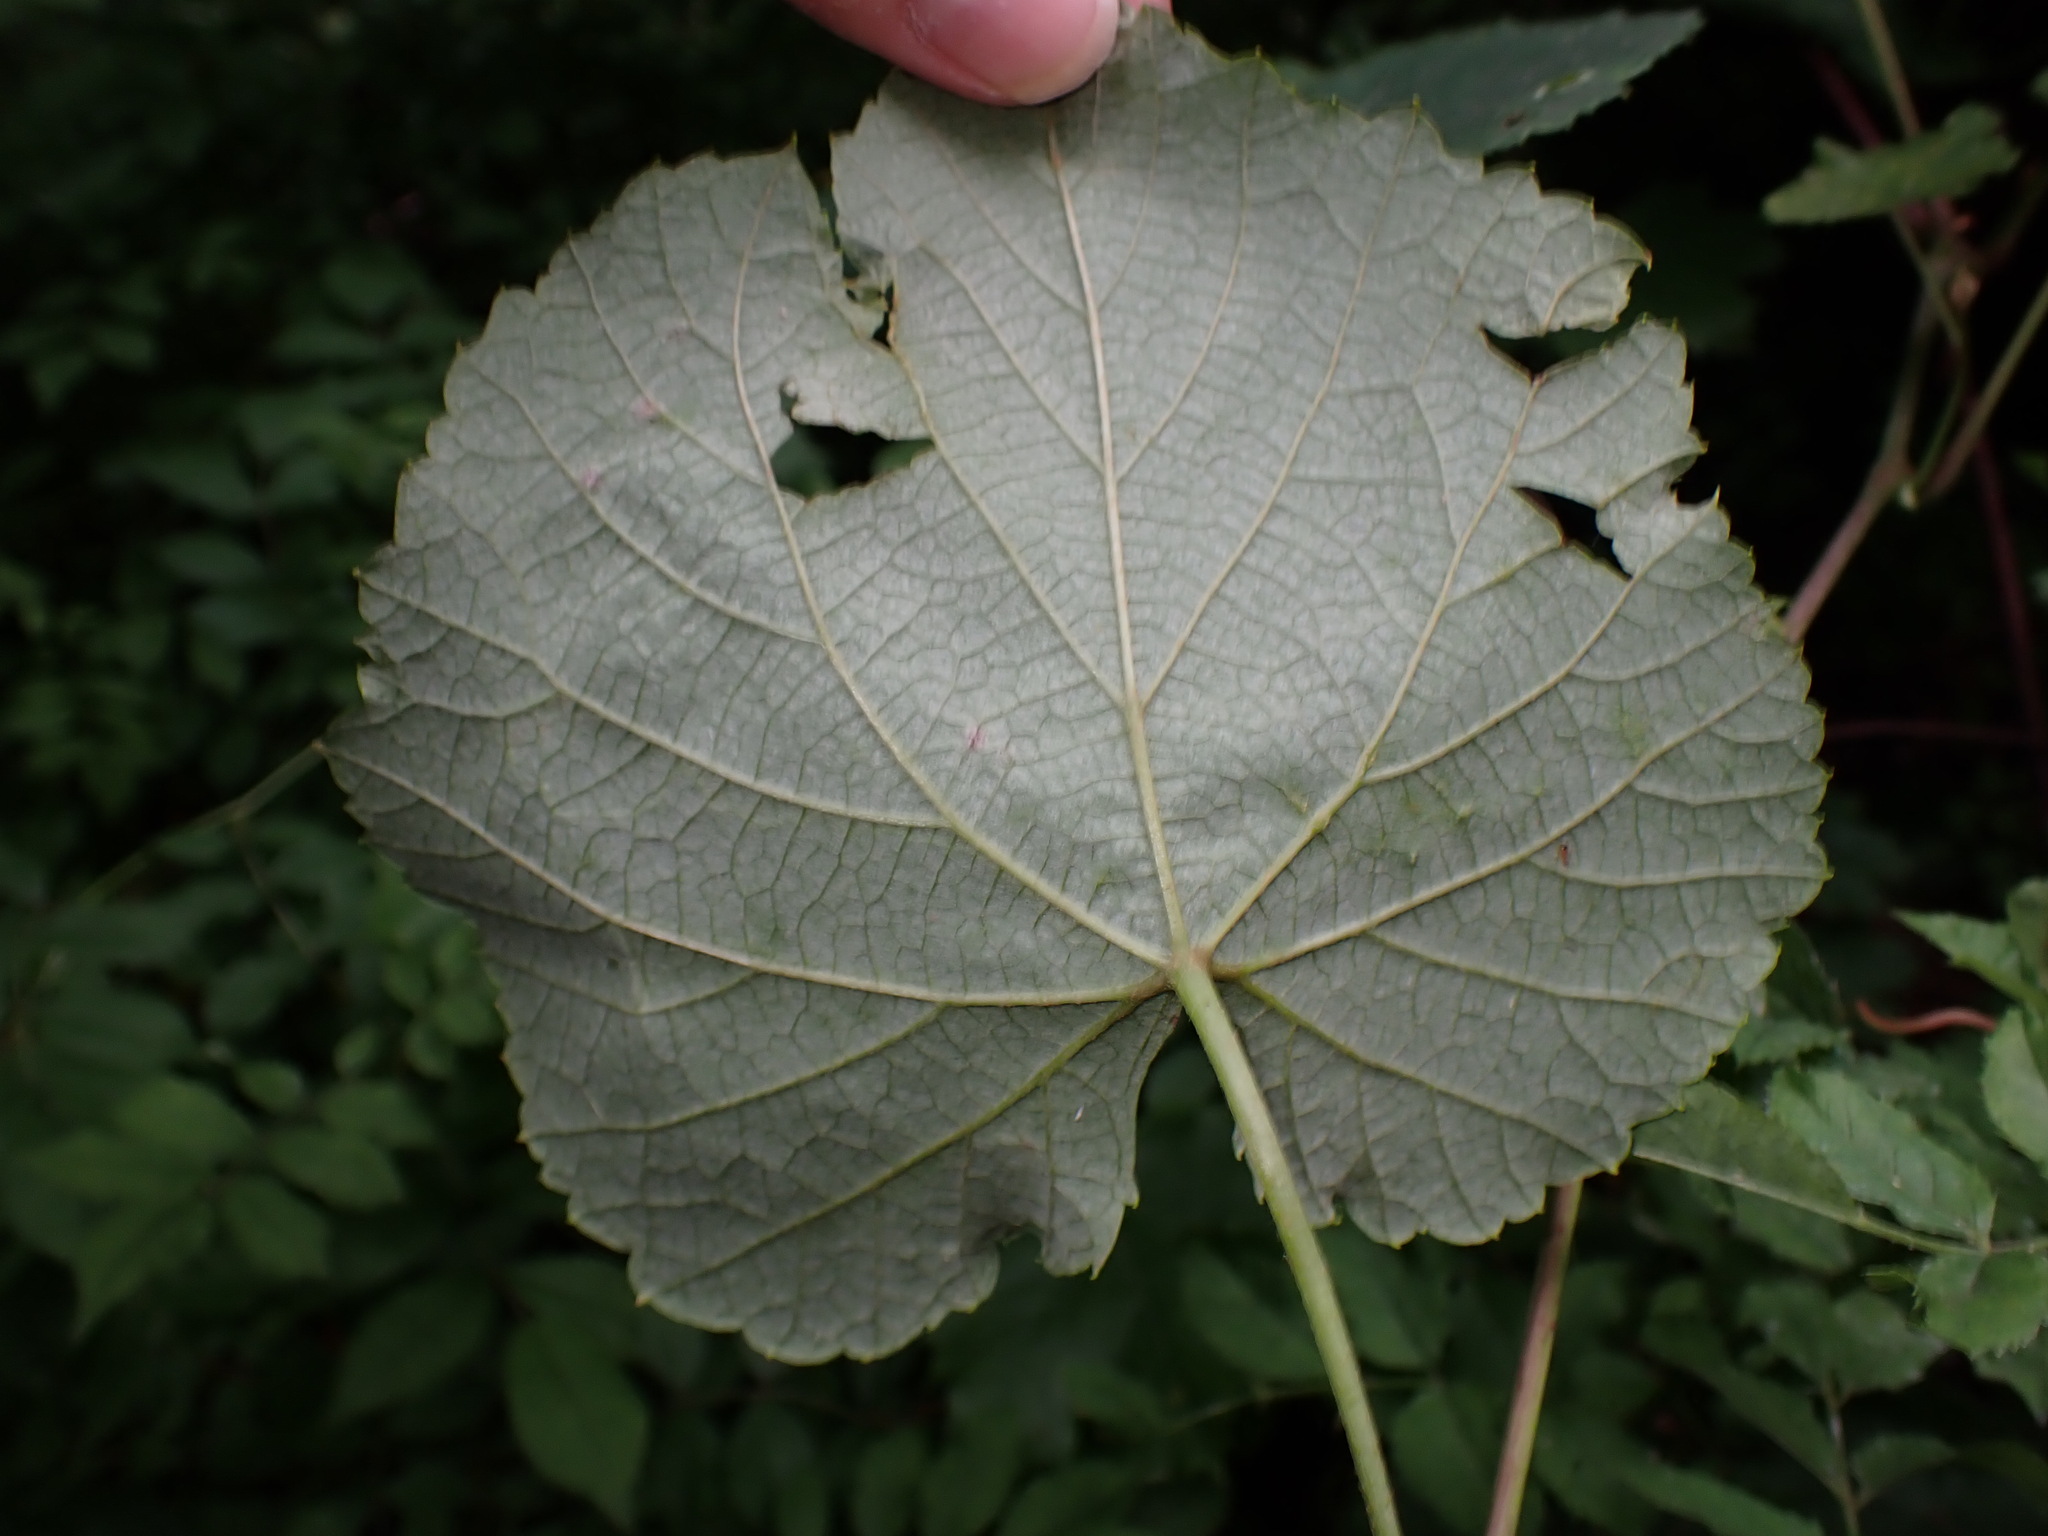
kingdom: Animalia
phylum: Arthropoda
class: Insecta
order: Lepidoptera
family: Gracillariidae
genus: Phyllocnistis
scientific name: Phyllocnistis vitifoliella
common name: Grape leaf-miner moth
